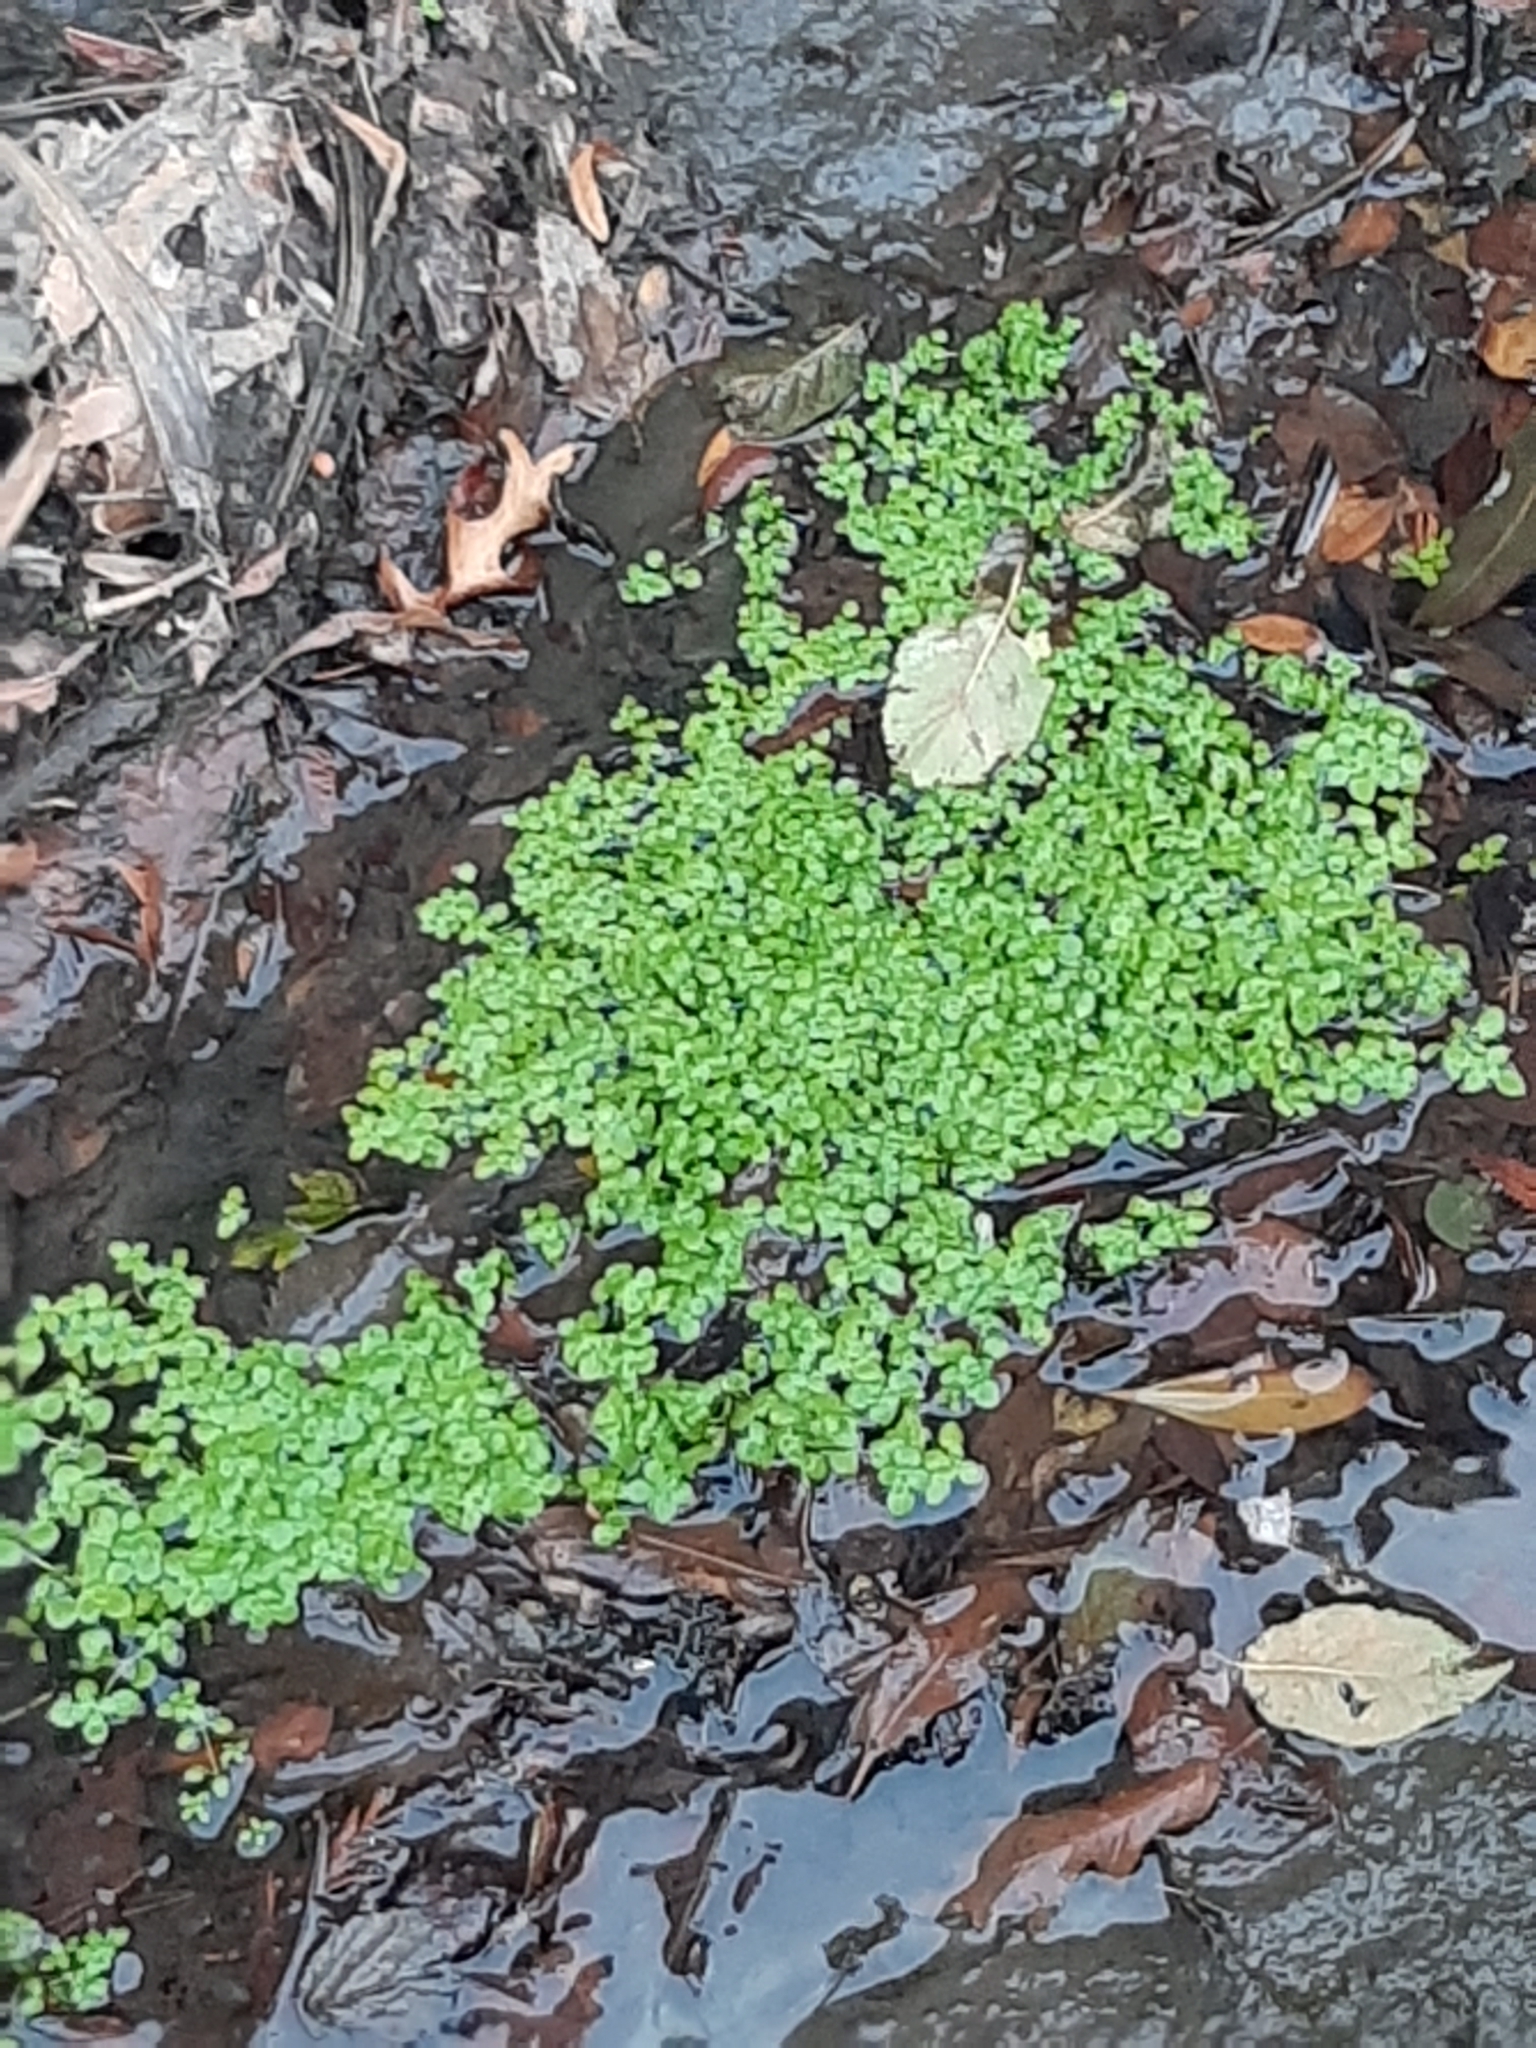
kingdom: Plantae
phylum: Tracheophyta
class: Magnoliopsida
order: Lamiales
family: Plantaginaceae
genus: Callitriche
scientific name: Callitriche stagnalis
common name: Common water-starwort
